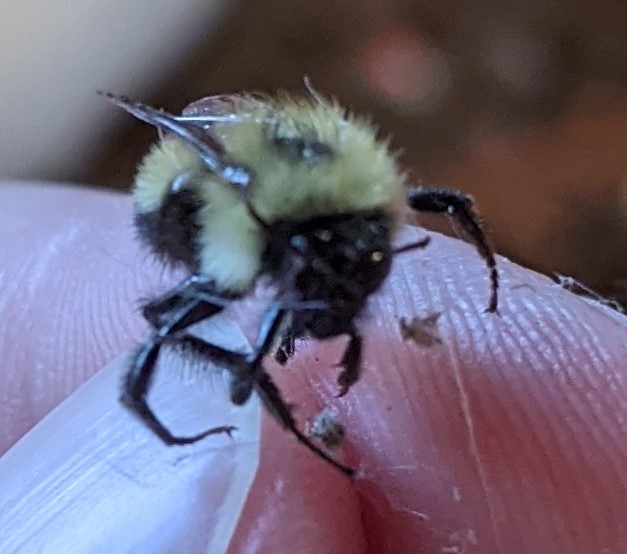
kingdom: Animalia
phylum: Arthropoda
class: Insecta
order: Hymenoptera
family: Apidae
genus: Pyrobombus
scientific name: Pyrobombus
